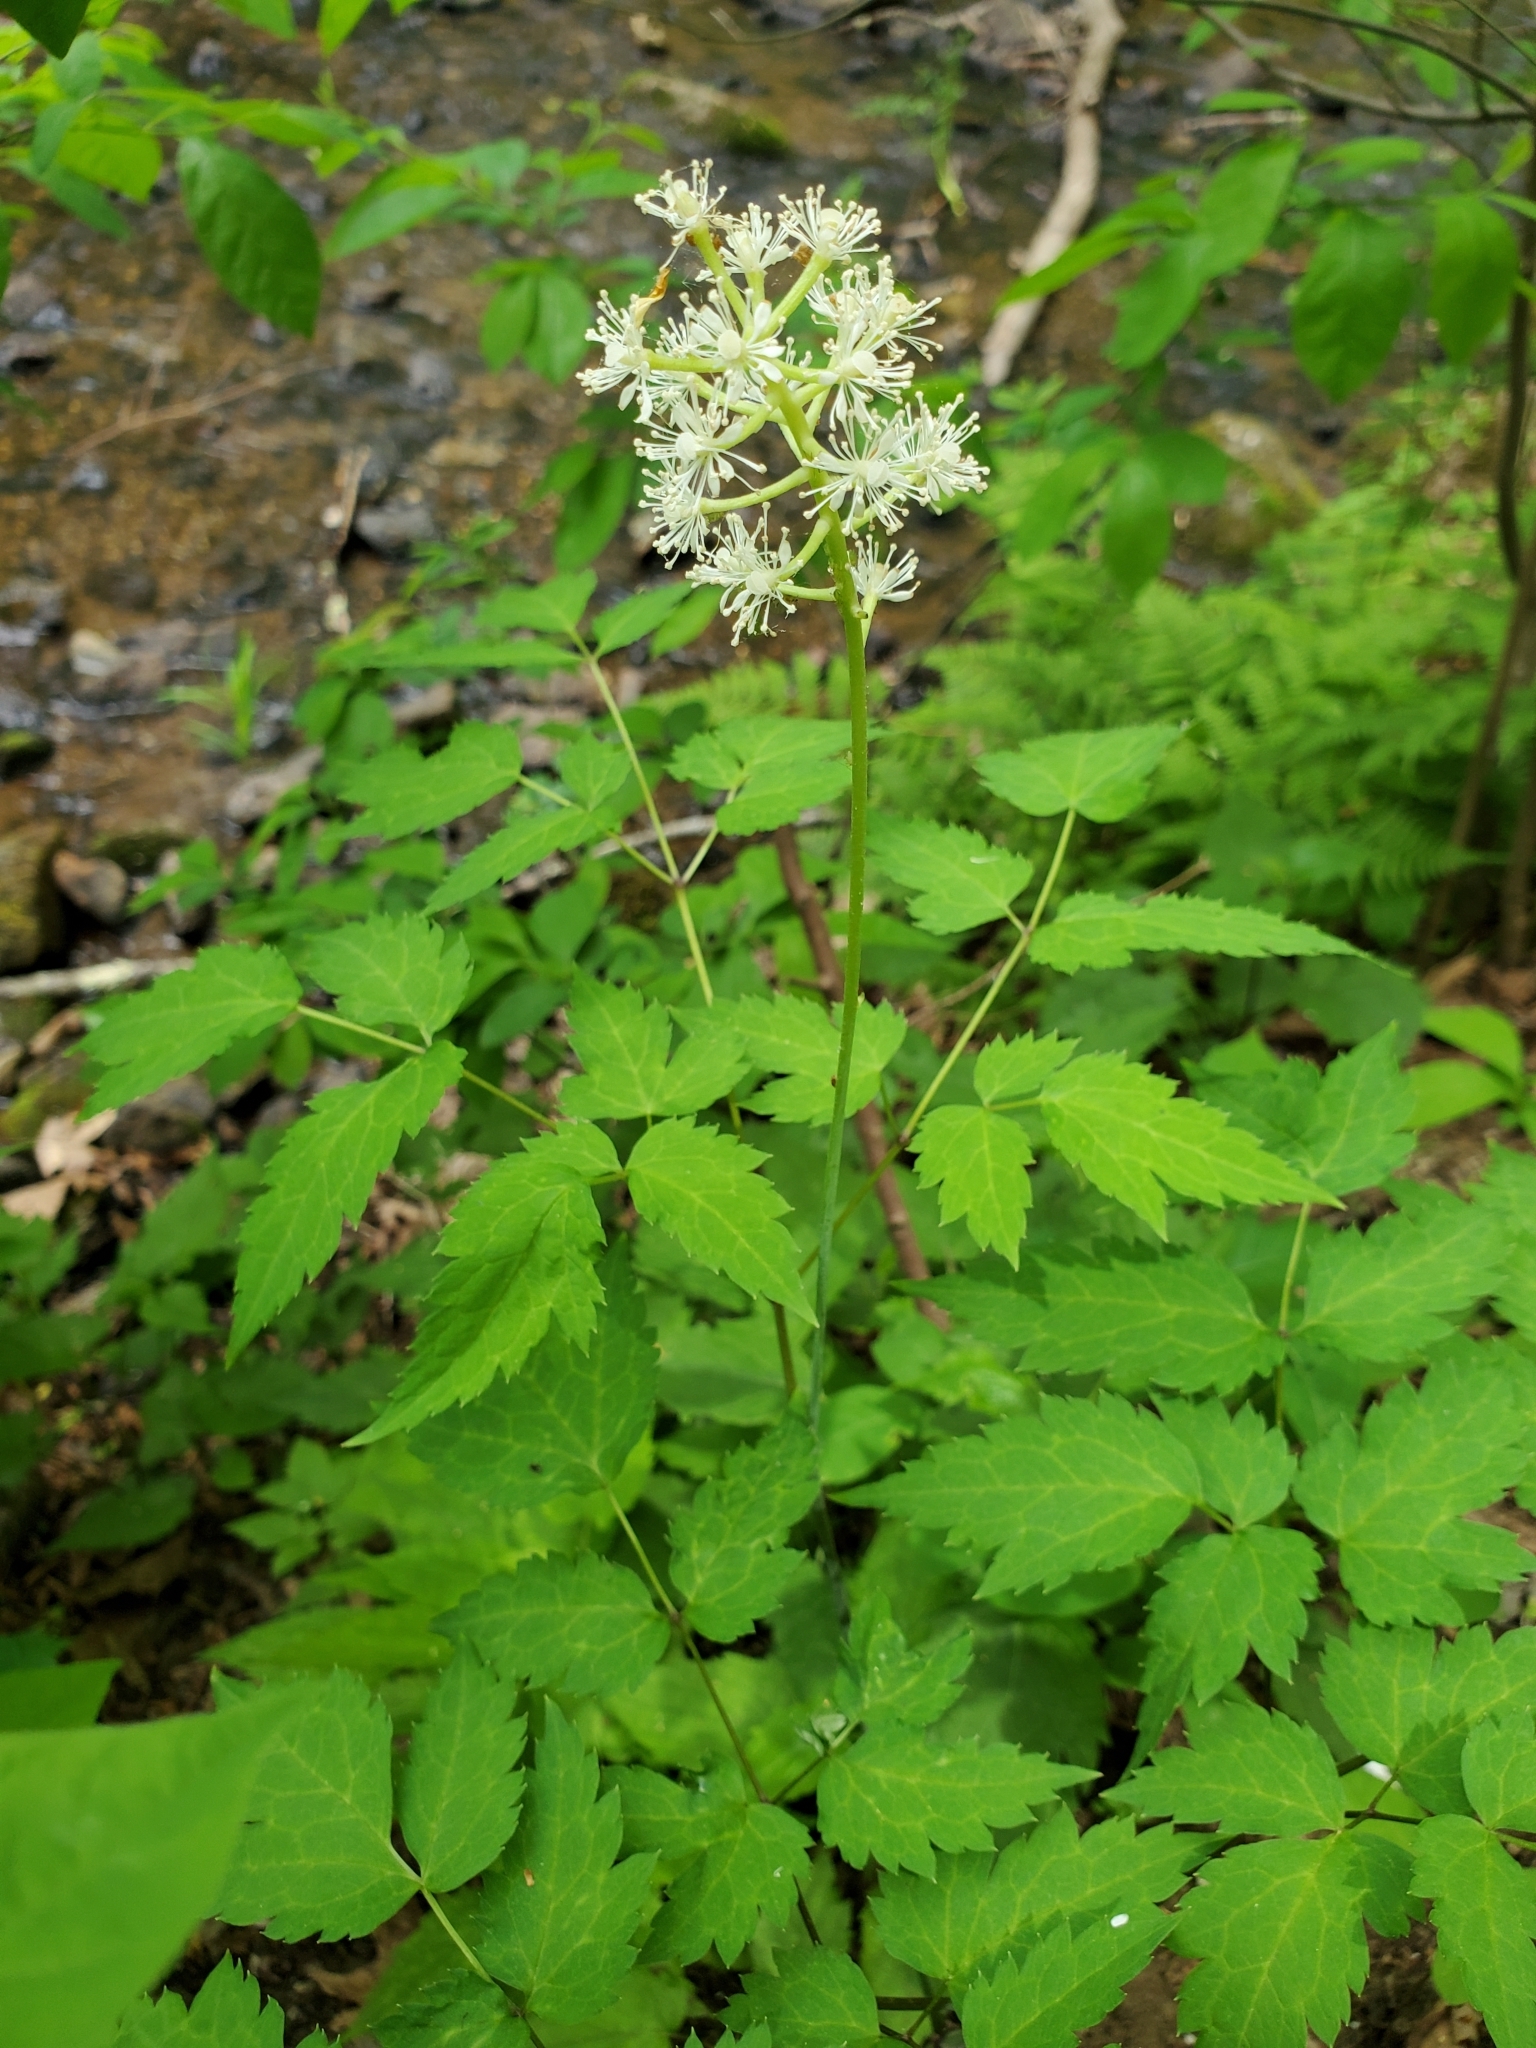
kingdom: Plantae
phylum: Tracheophyta
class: Magnoliopsida
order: Ranunculales
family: Ranunculaceae
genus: Actaea
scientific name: Actaea pachypoda
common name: Doll's-eyes
